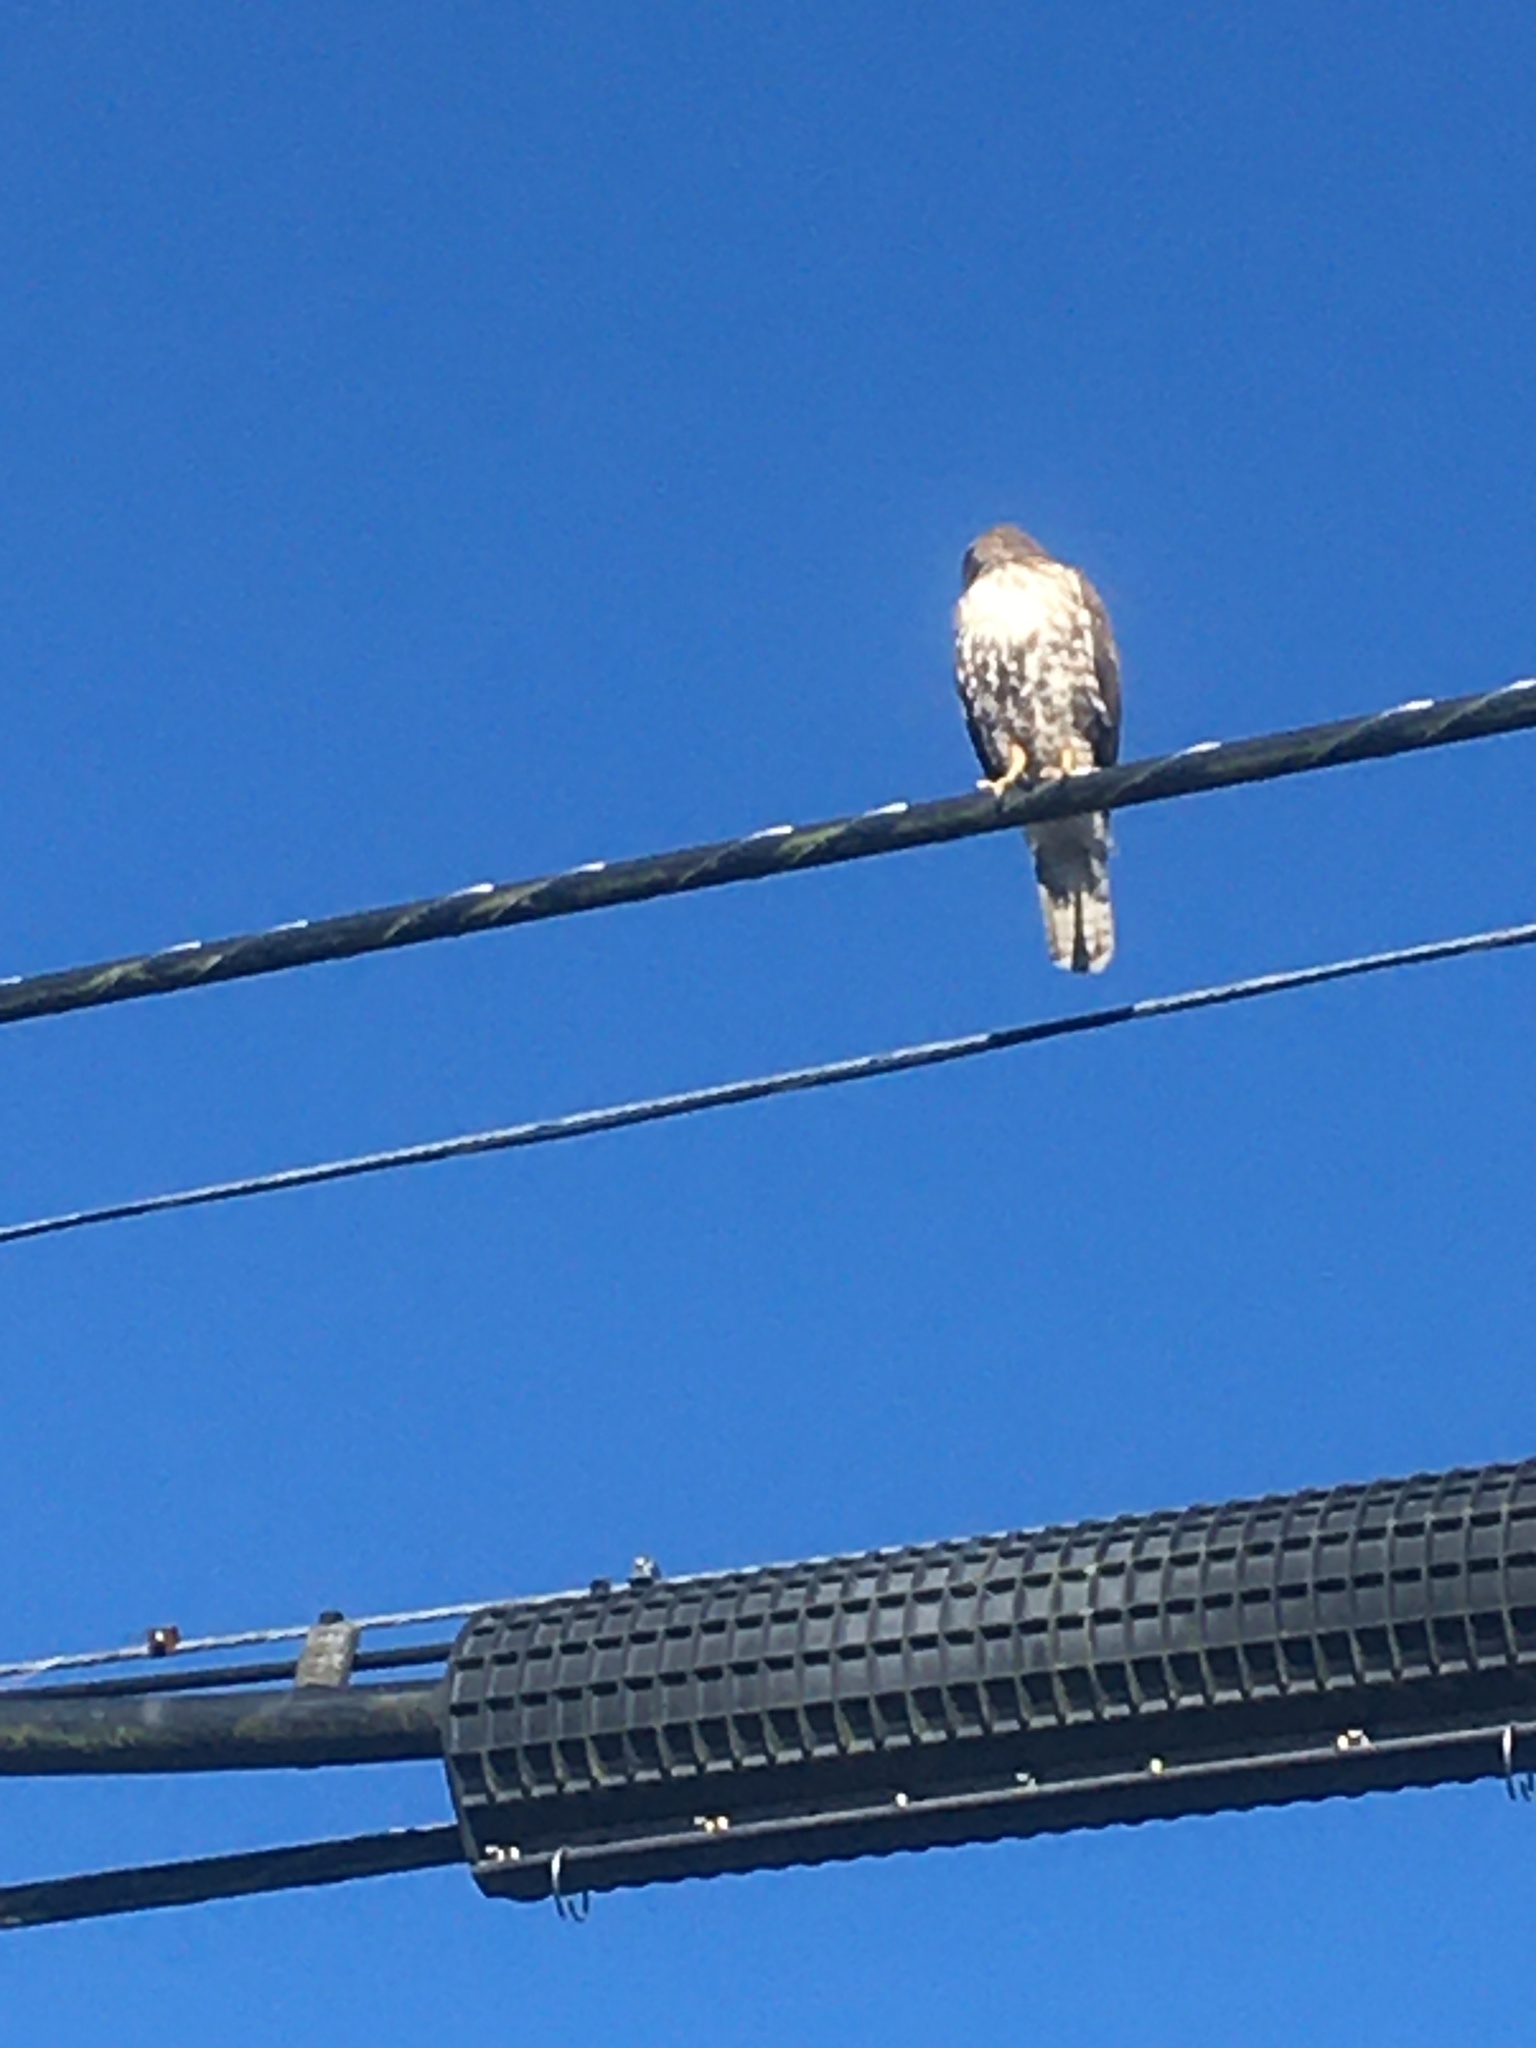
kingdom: Animalia
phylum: Chordata
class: Aves
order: Accipitriformes
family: Accipitridae
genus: Buteo
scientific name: Buteo jamaicensis
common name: Red-tailed hawk
